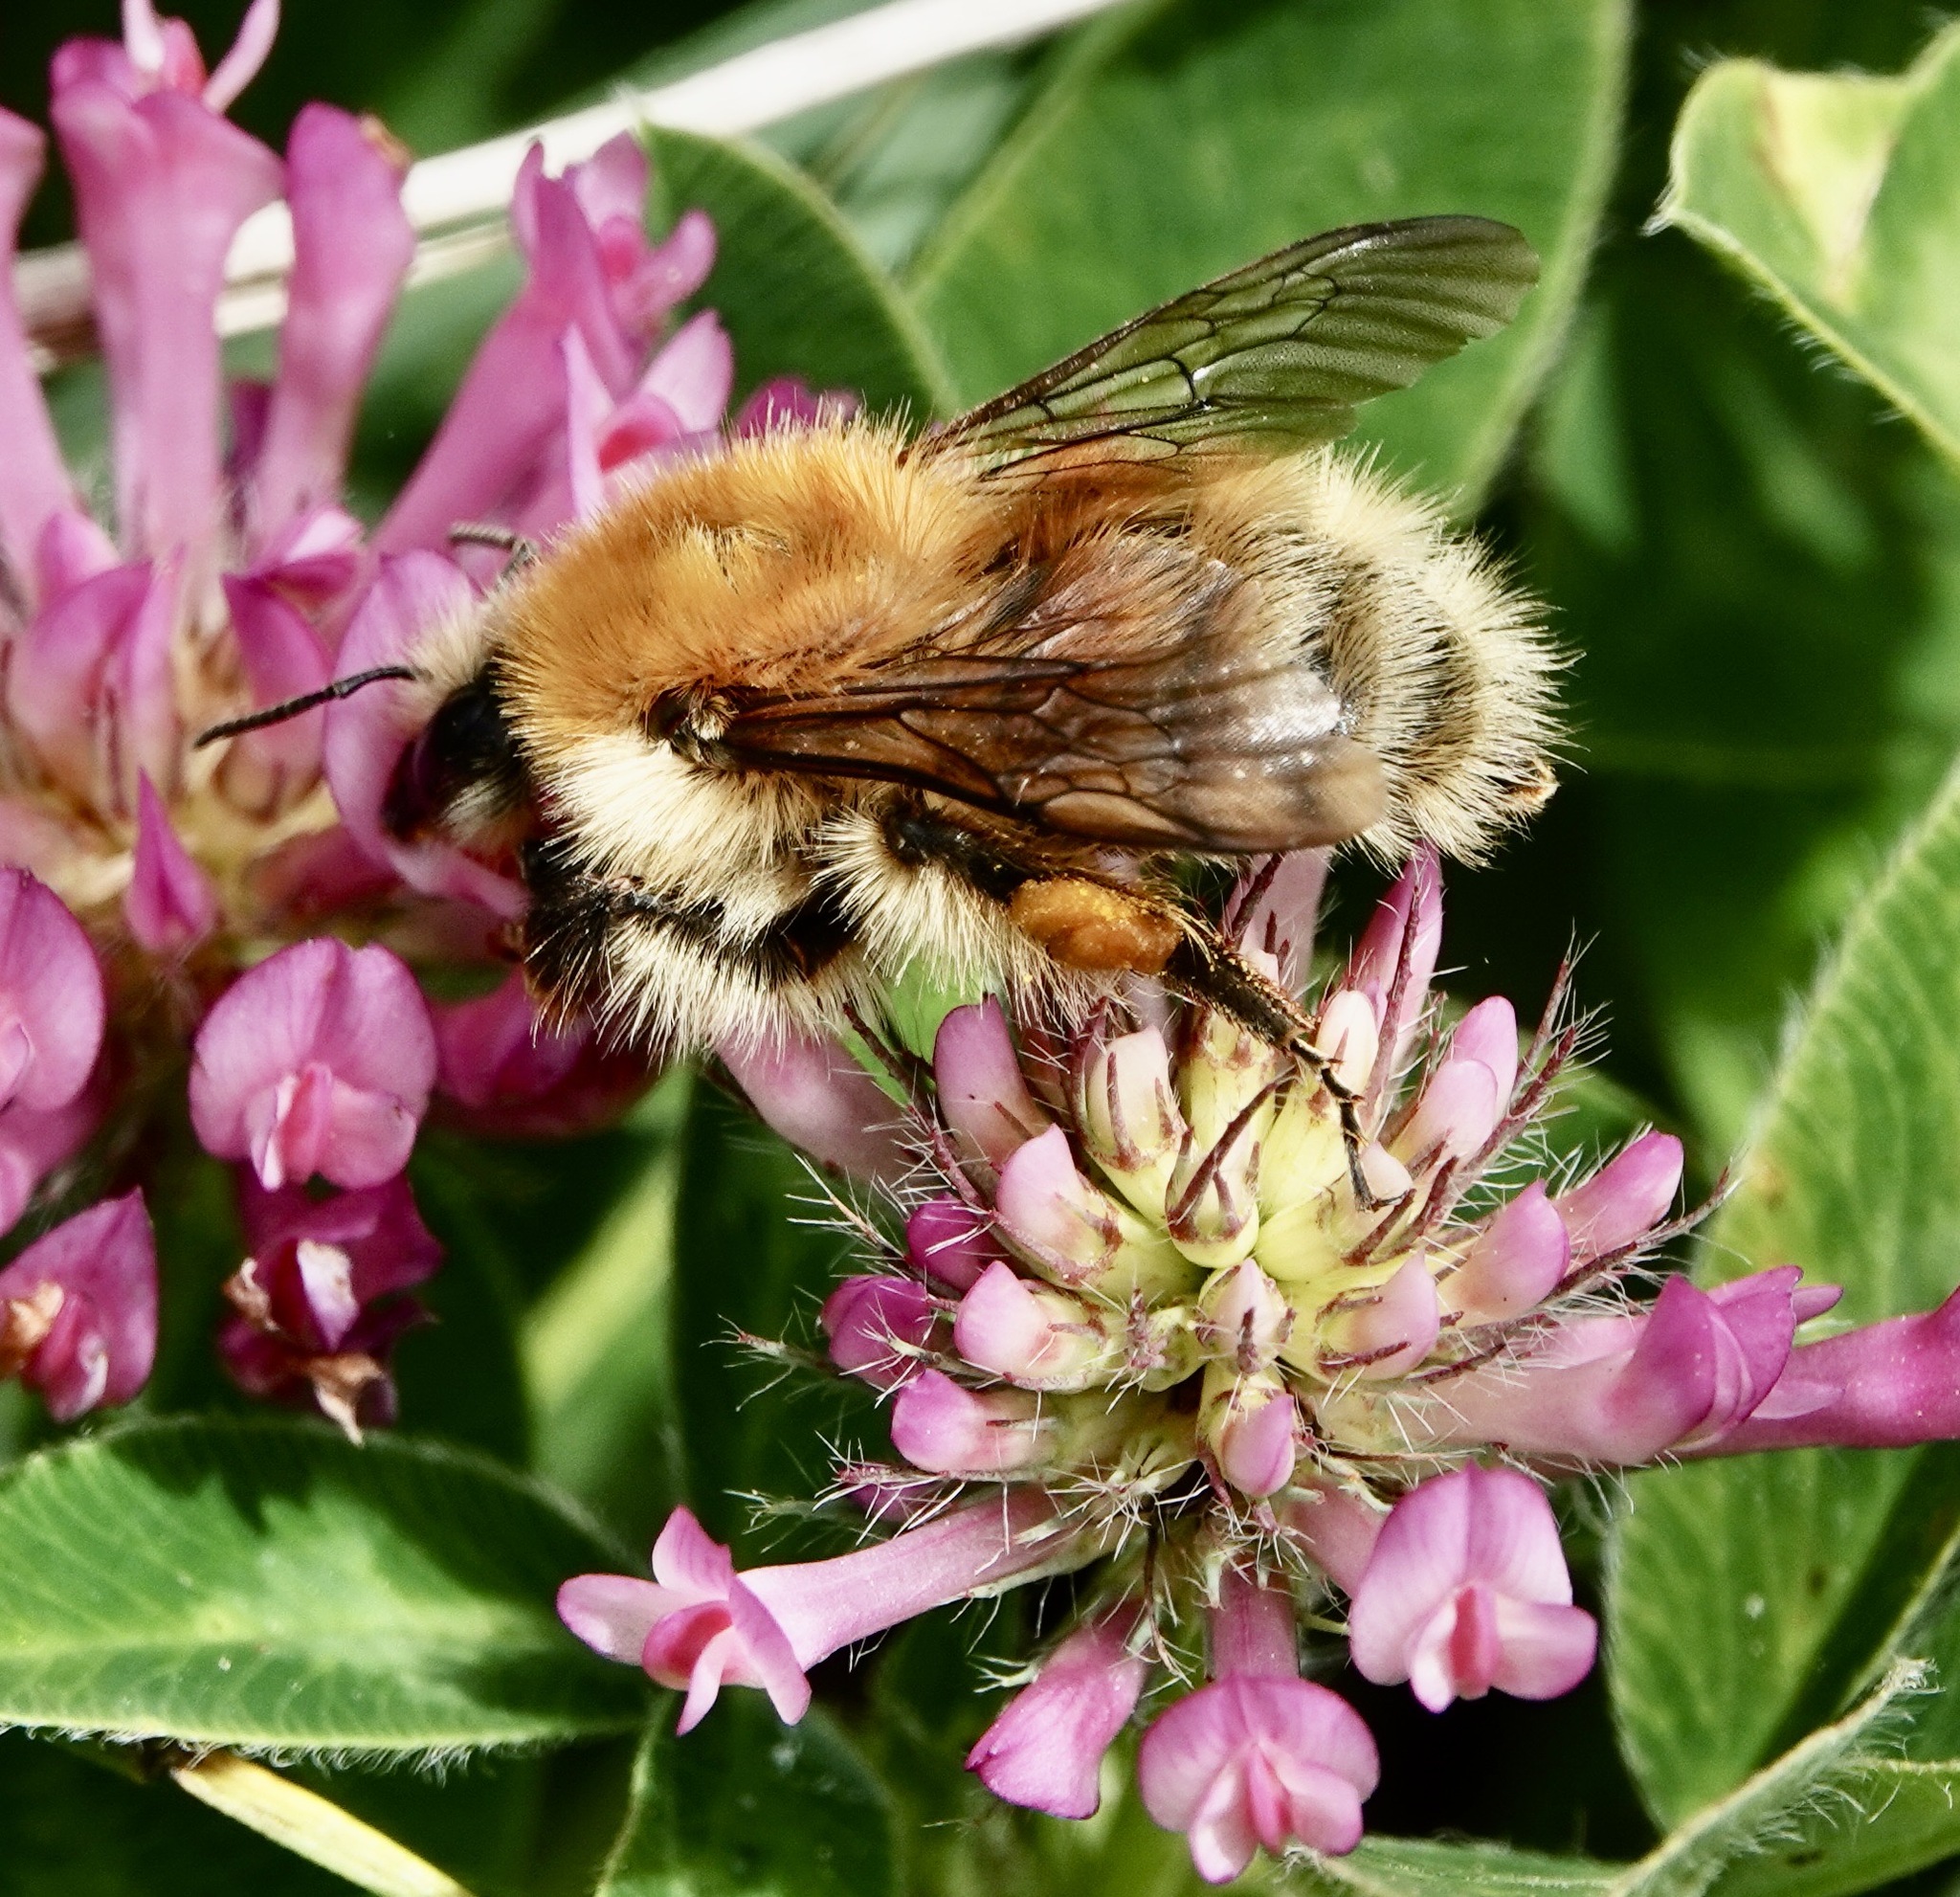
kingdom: Animalia
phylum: Arthropoda
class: Insecta
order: Hymenoptera
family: Apidae
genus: Bombus
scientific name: Bombus humilis
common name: Brown-banded carder-bee
